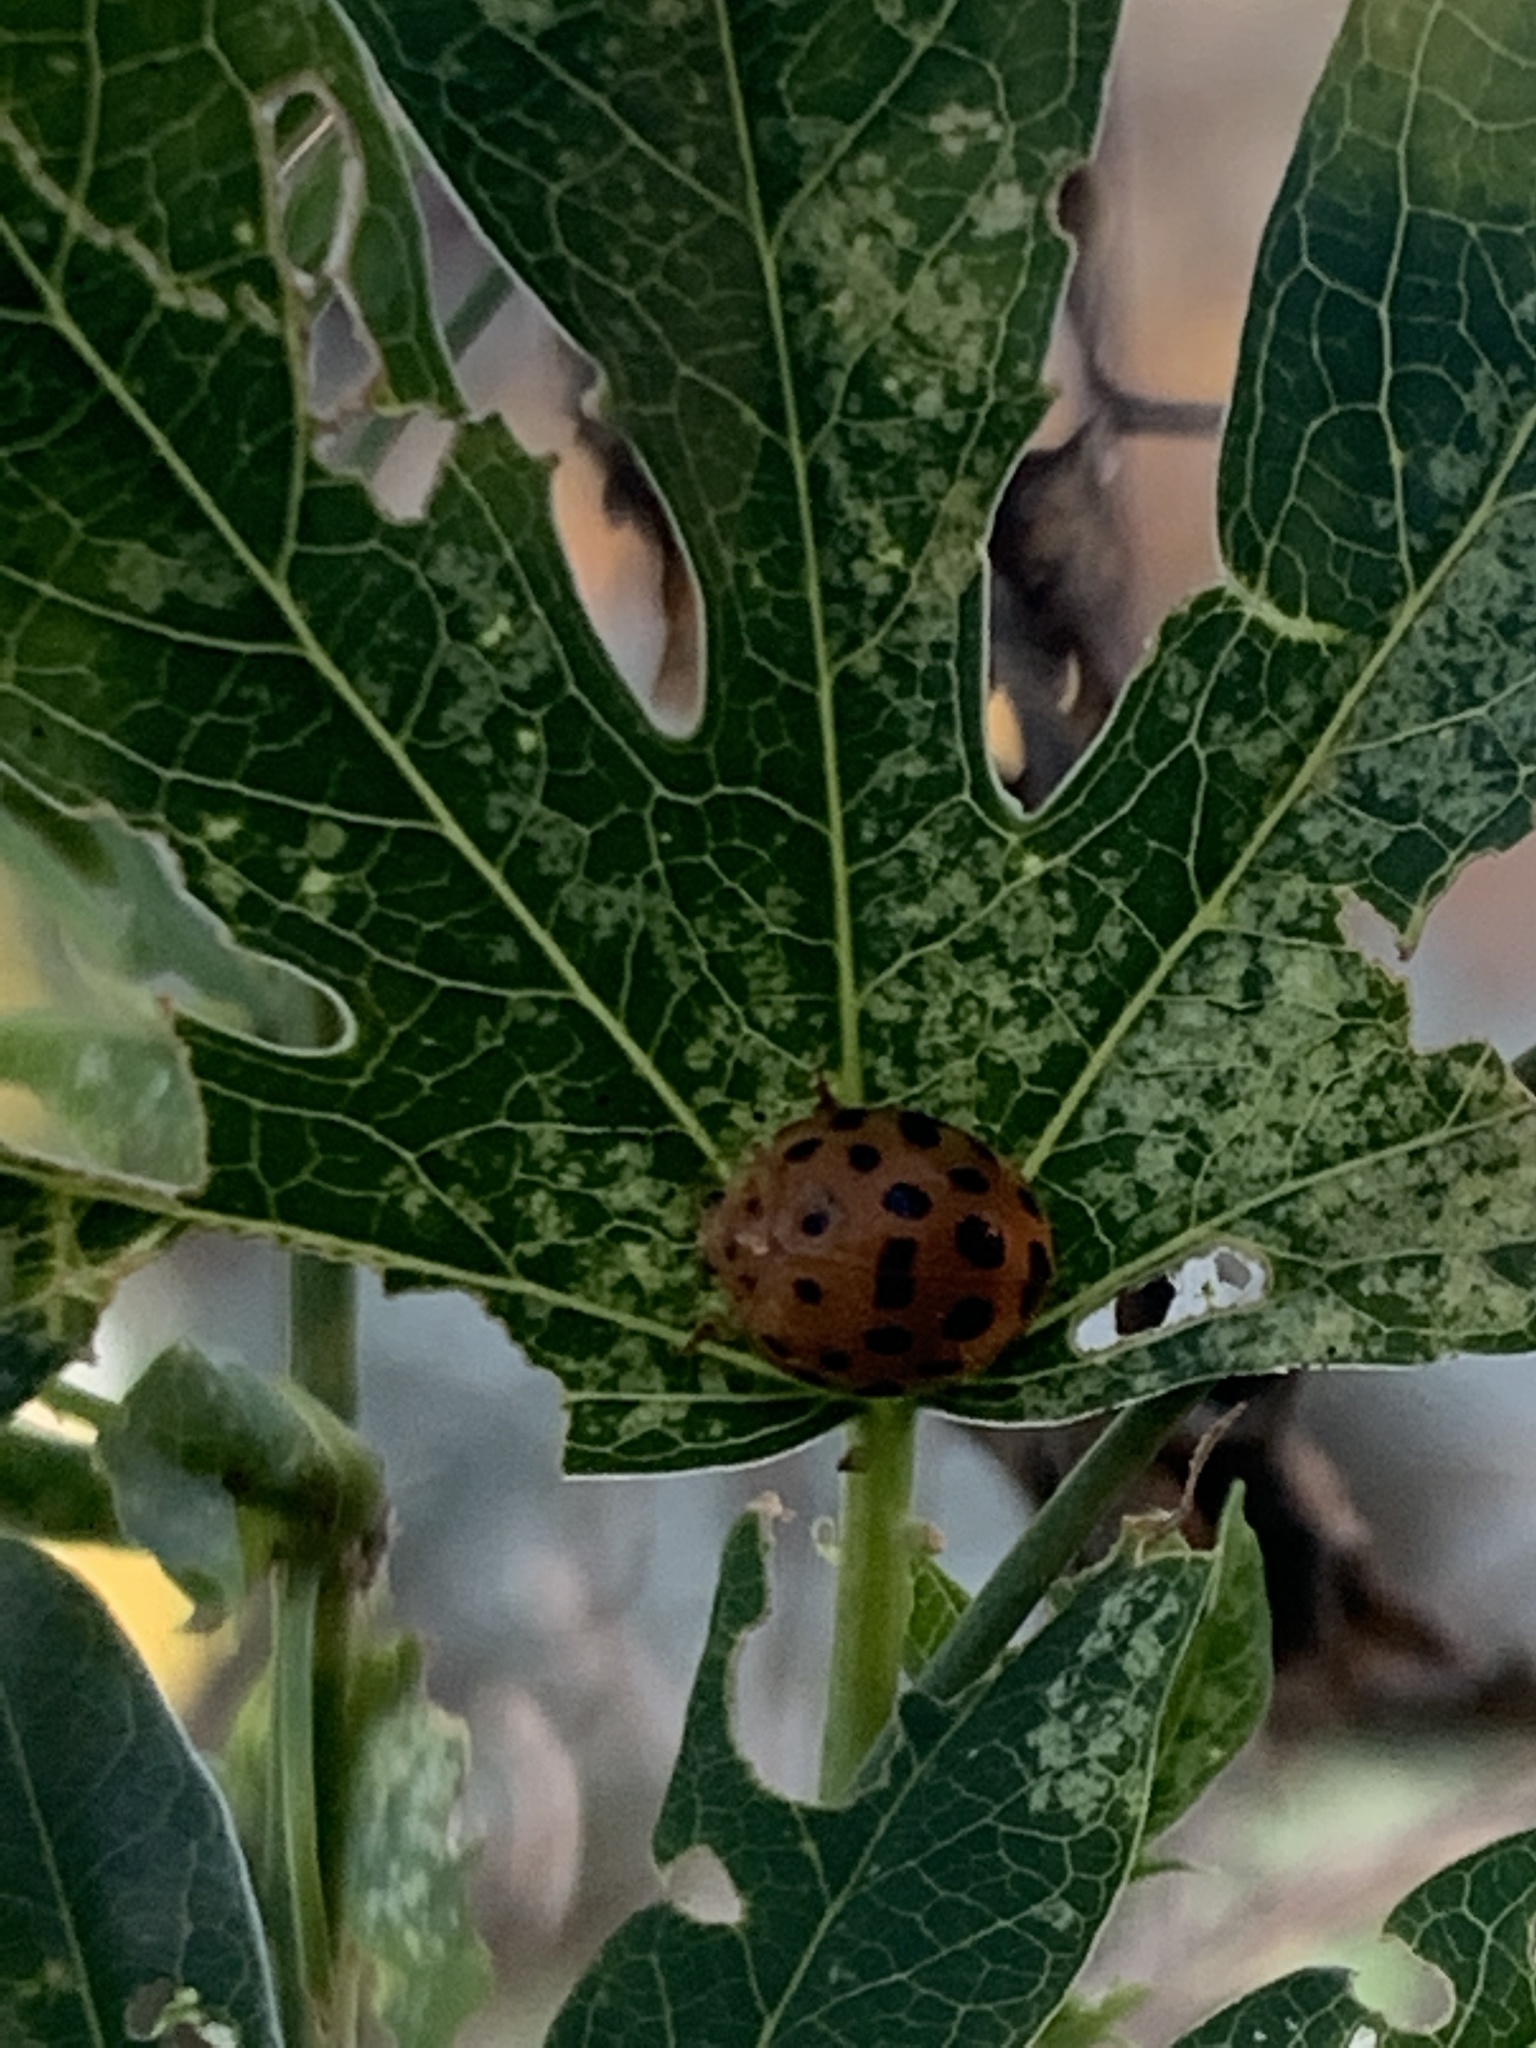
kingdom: Animalia
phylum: Arthropoda
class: Insecta
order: Coleoptera
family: Coccinellidae
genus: Henosepilachna
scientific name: Henosepilachna vigintioctopunctata
